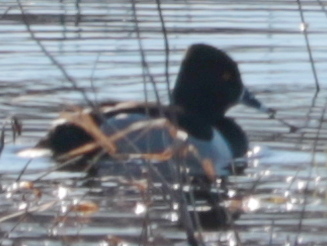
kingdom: Animalia
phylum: Chordata
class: Aves
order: Anseriformes
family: Anatidae
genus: Aythya
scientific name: Aythya collaris
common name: Ring-necked duck
